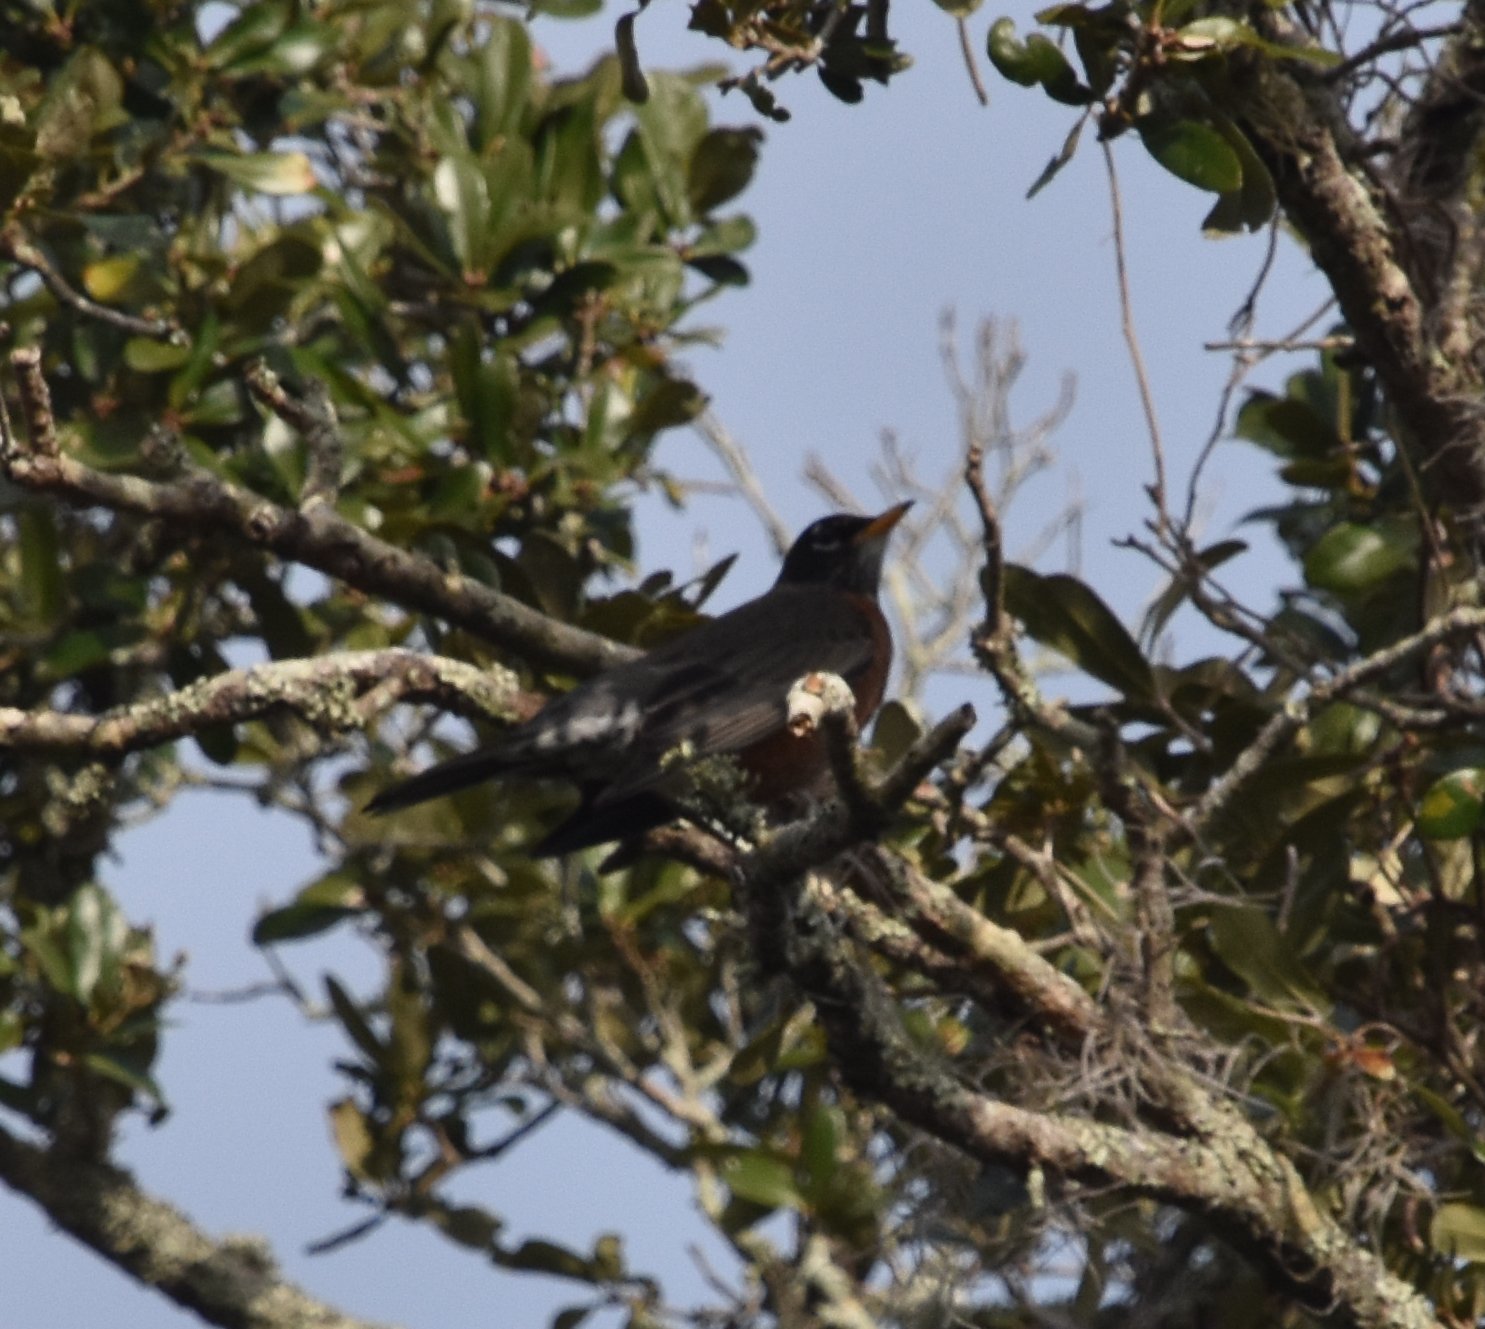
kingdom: Animalia
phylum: Chordata
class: Aves
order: Passeriformes
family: Turdidae
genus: Turdus
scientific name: Turdus migratorius
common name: American robin
